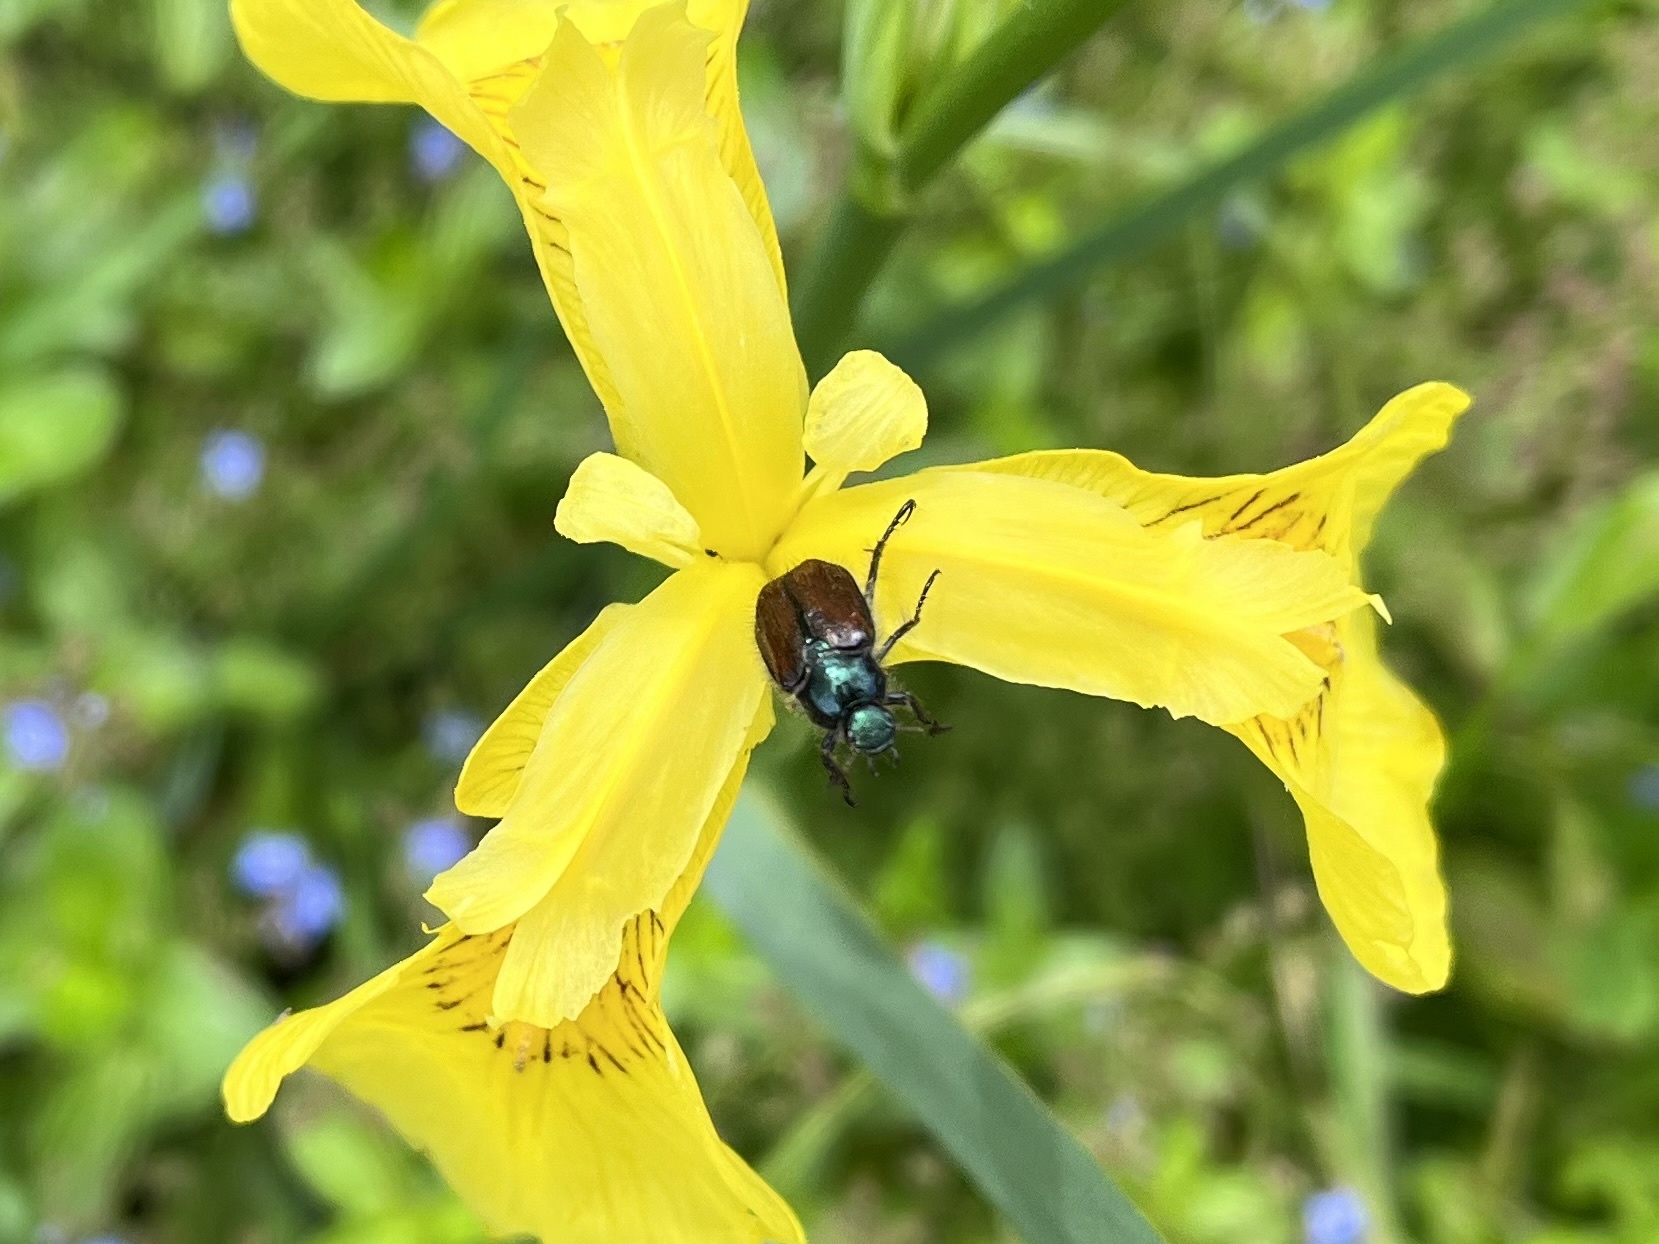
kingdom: Animalia
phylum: Arthropoda
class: Insecta
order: Coleoptera
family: Scarabaeidae
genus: Phyllopertha
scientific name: Phyllopertha horticola
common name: Garden chafer
